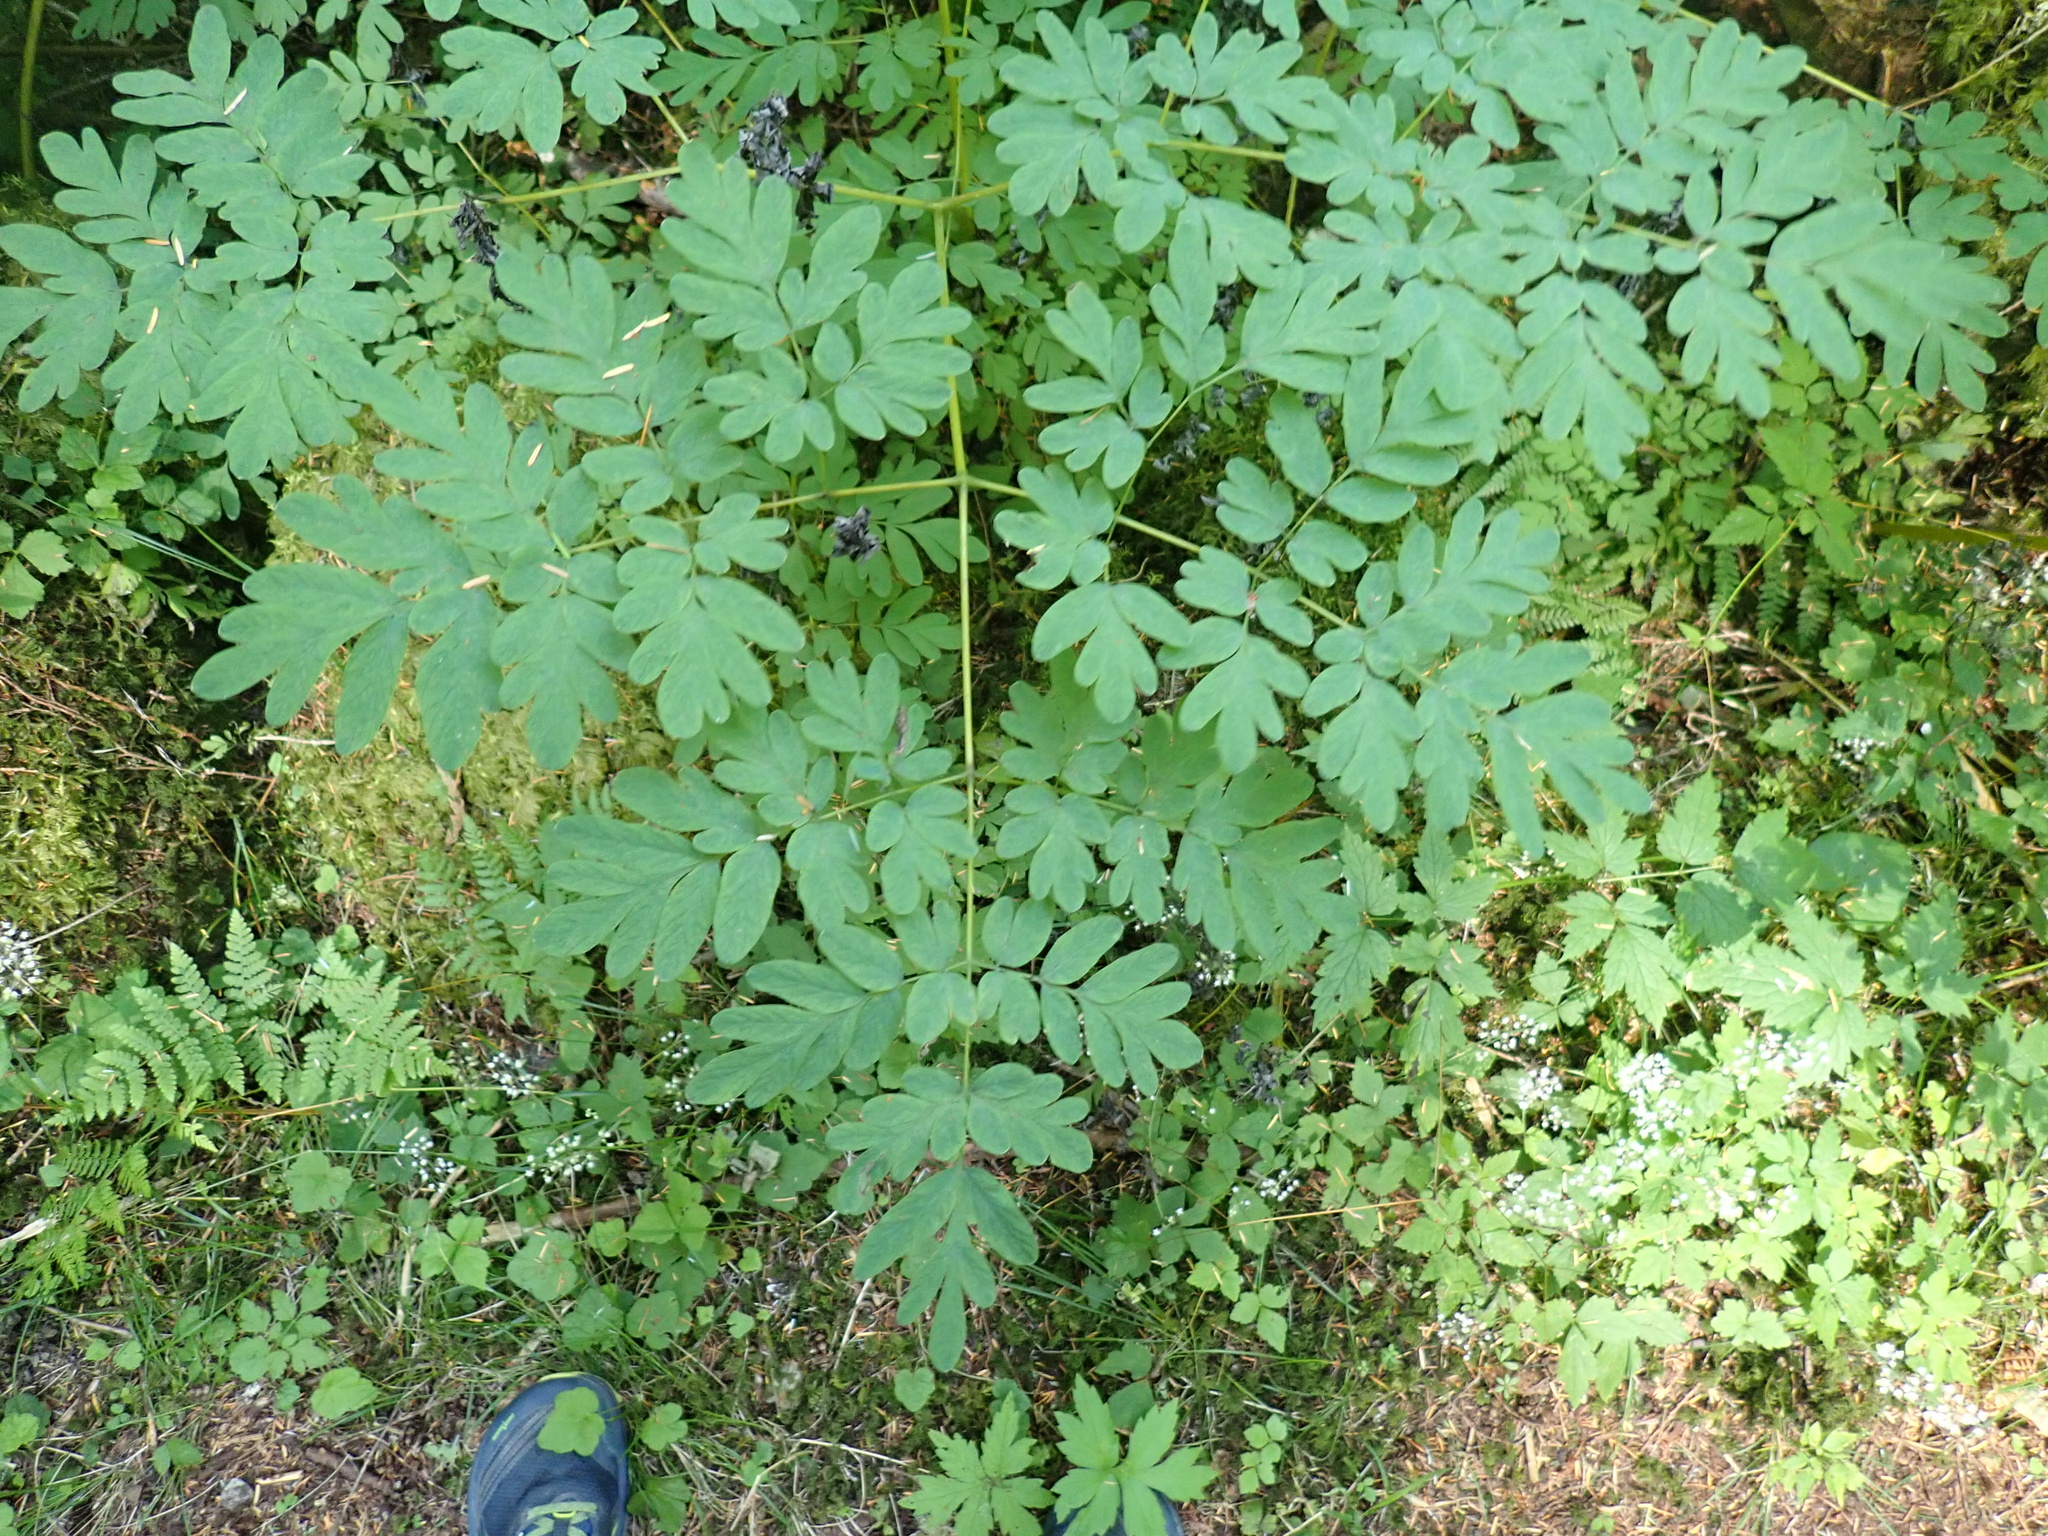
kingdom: Plantae
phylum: Tracheophyta
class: Magnoliopsida
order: Ranunculales
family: Papaveraceae
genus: Corydalis
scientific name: Corydalis scouleri
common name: Scouler's corydalis
